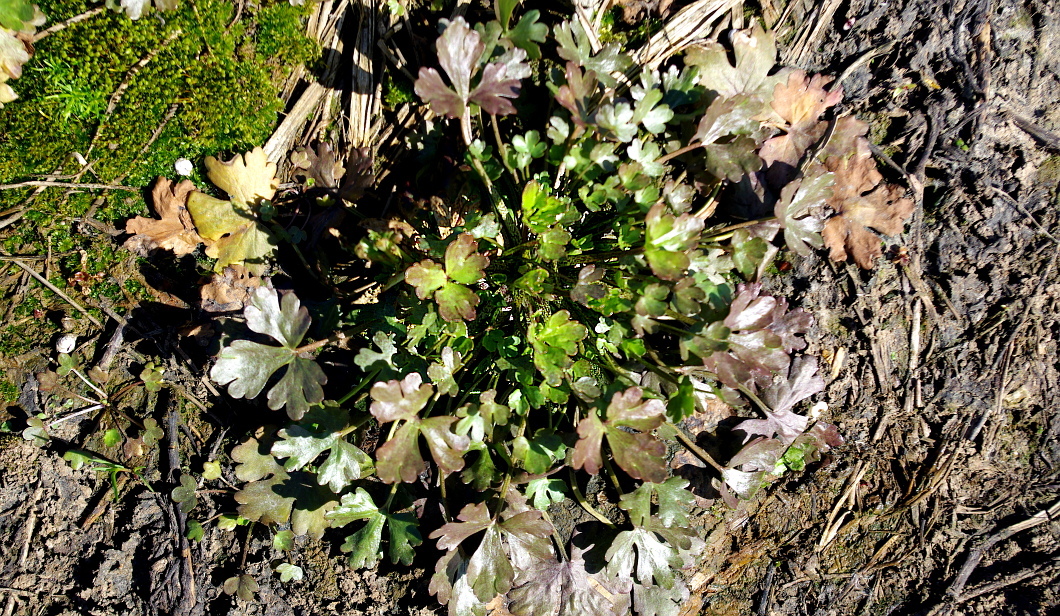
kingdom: Plantae
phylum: Tracheophyta
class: Magnoliopsida
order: Ranunculales
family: Ranunculaceae
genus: Ranunculus
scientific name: Ranunculus sceleratus
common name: Celery-leaved buttercup
